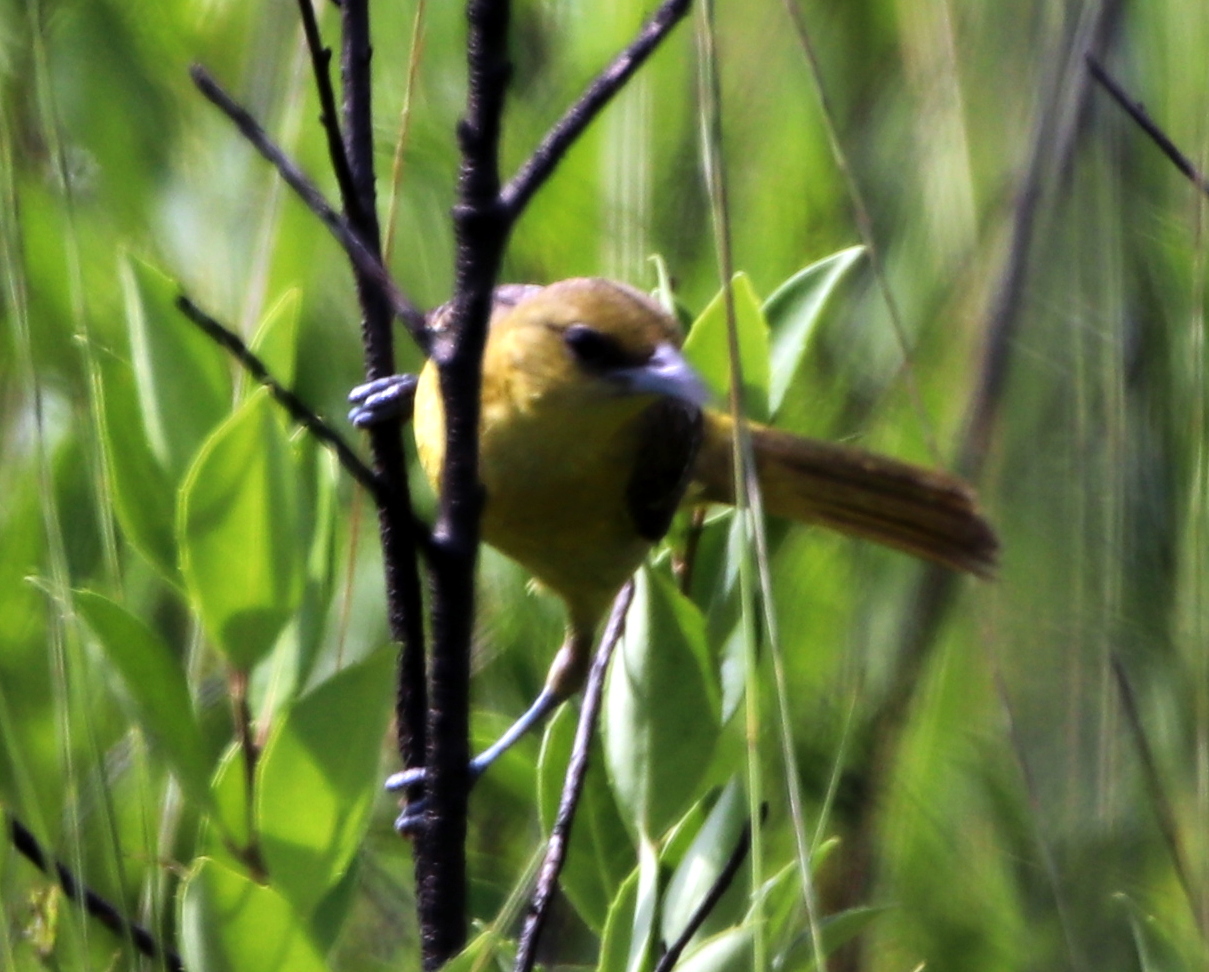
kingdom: Animalia
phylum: Chordata
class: Aves
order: Passeriformes
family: Icteridae
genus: Icterus
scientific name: Icterus spurius
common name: Orchard oriole
